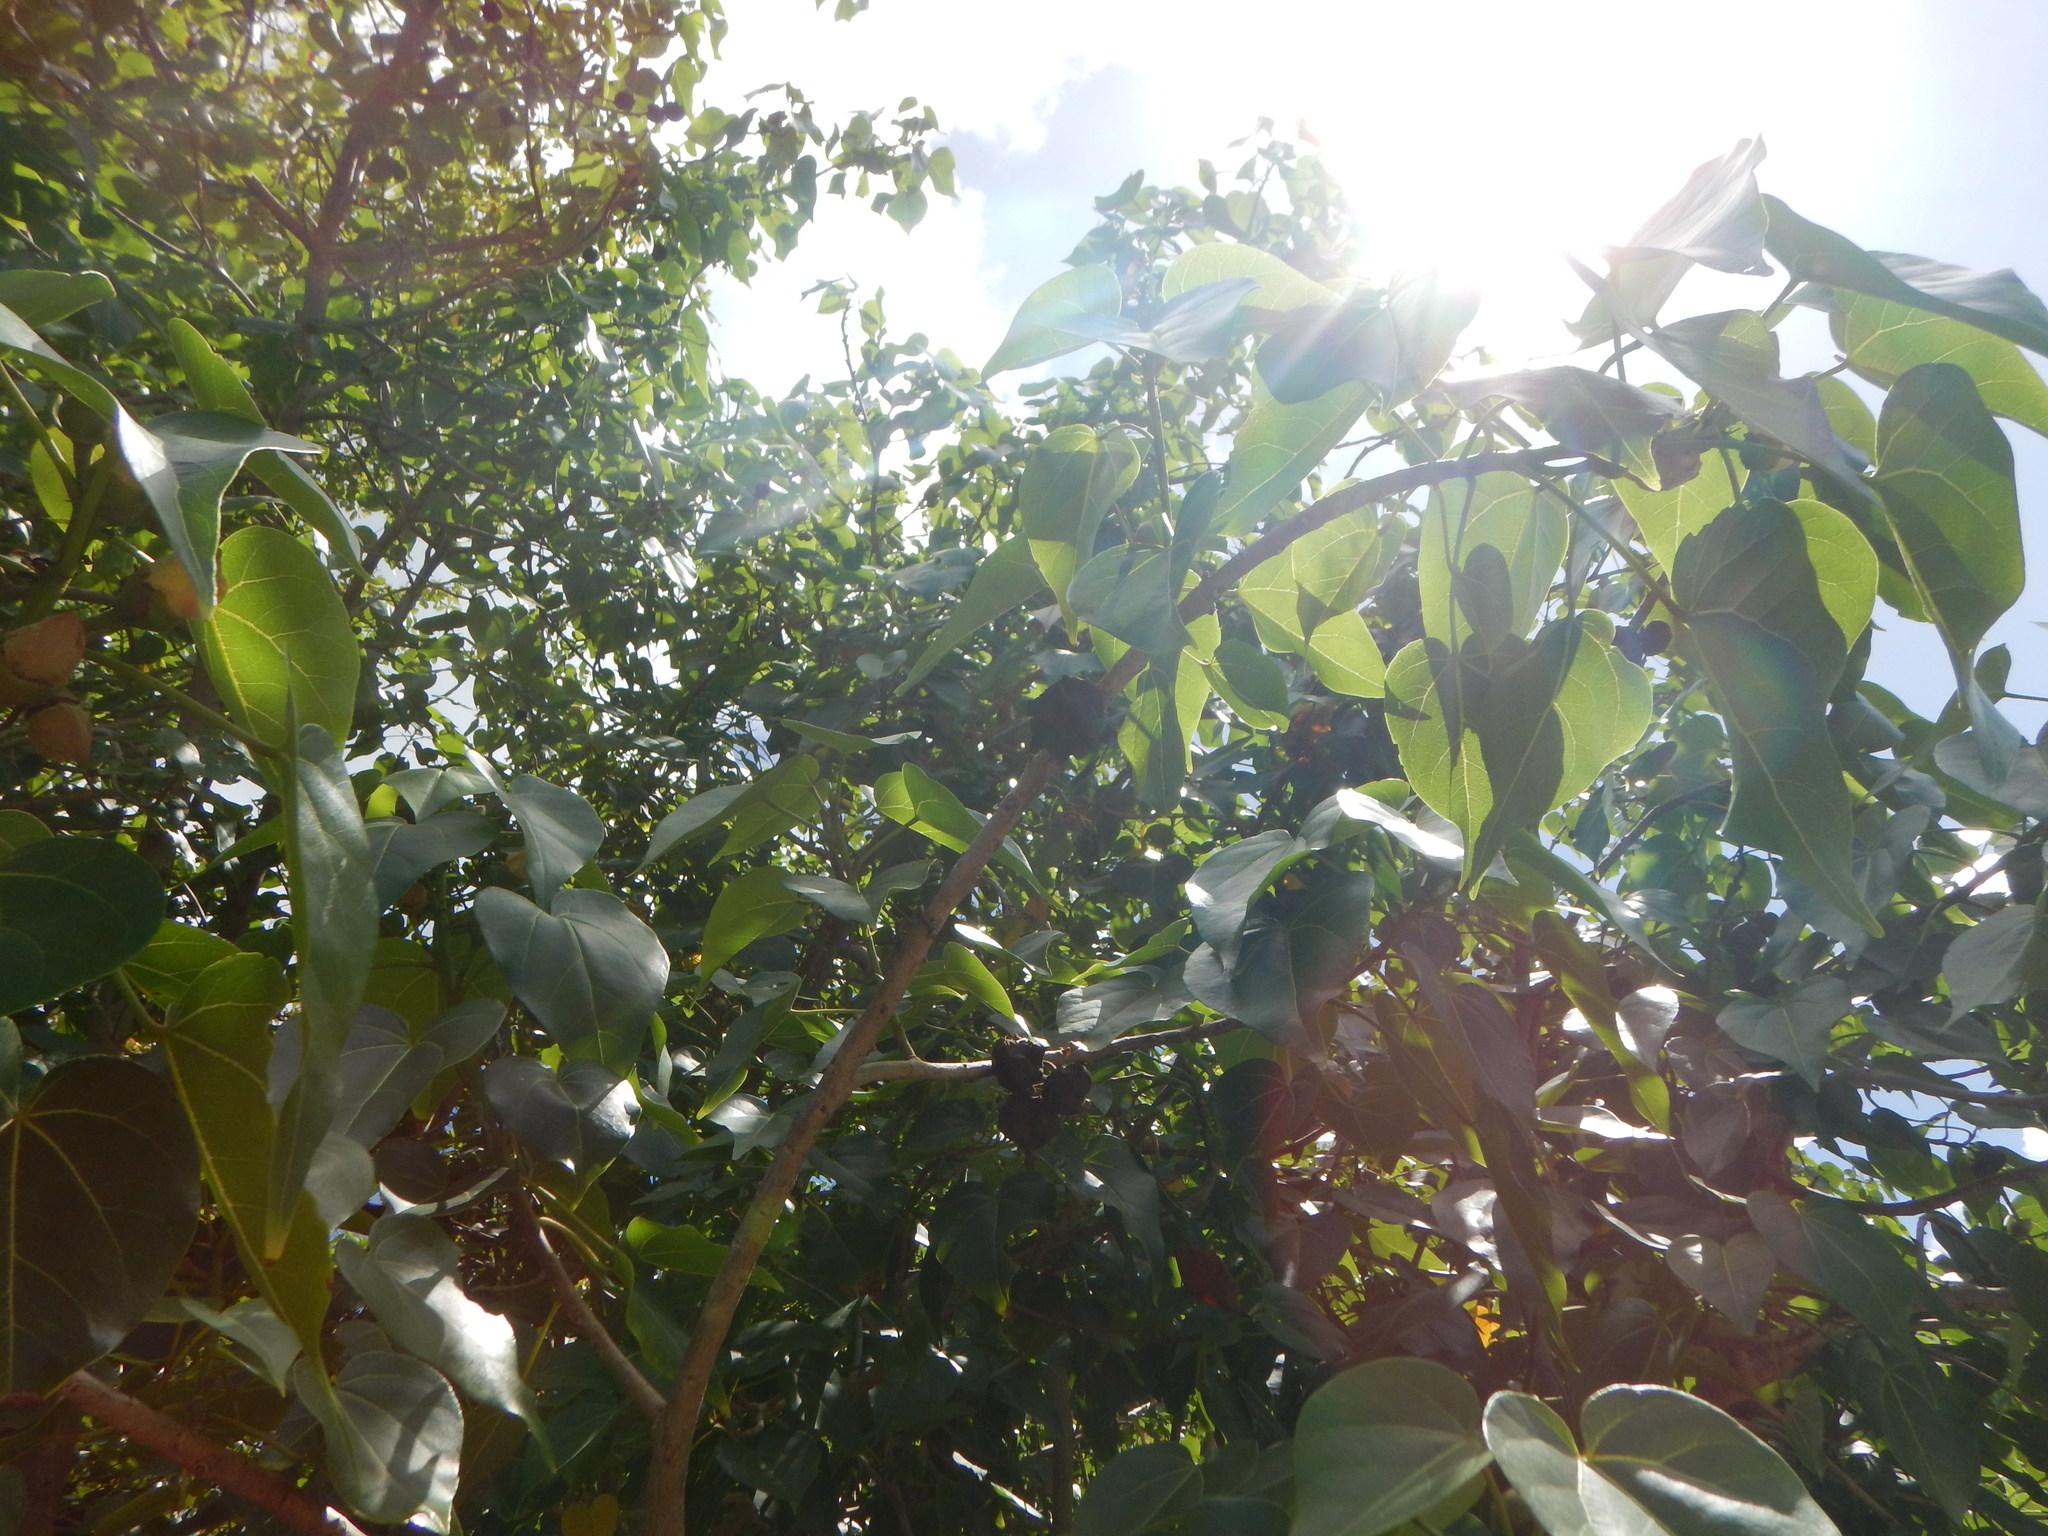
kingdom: Plantae
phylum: Tracheophyta
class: Magnoliopsida
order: Malvales
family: Malvaceae
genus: Thespesia
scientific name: Thespesia populnea
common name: Seaside mahoe
